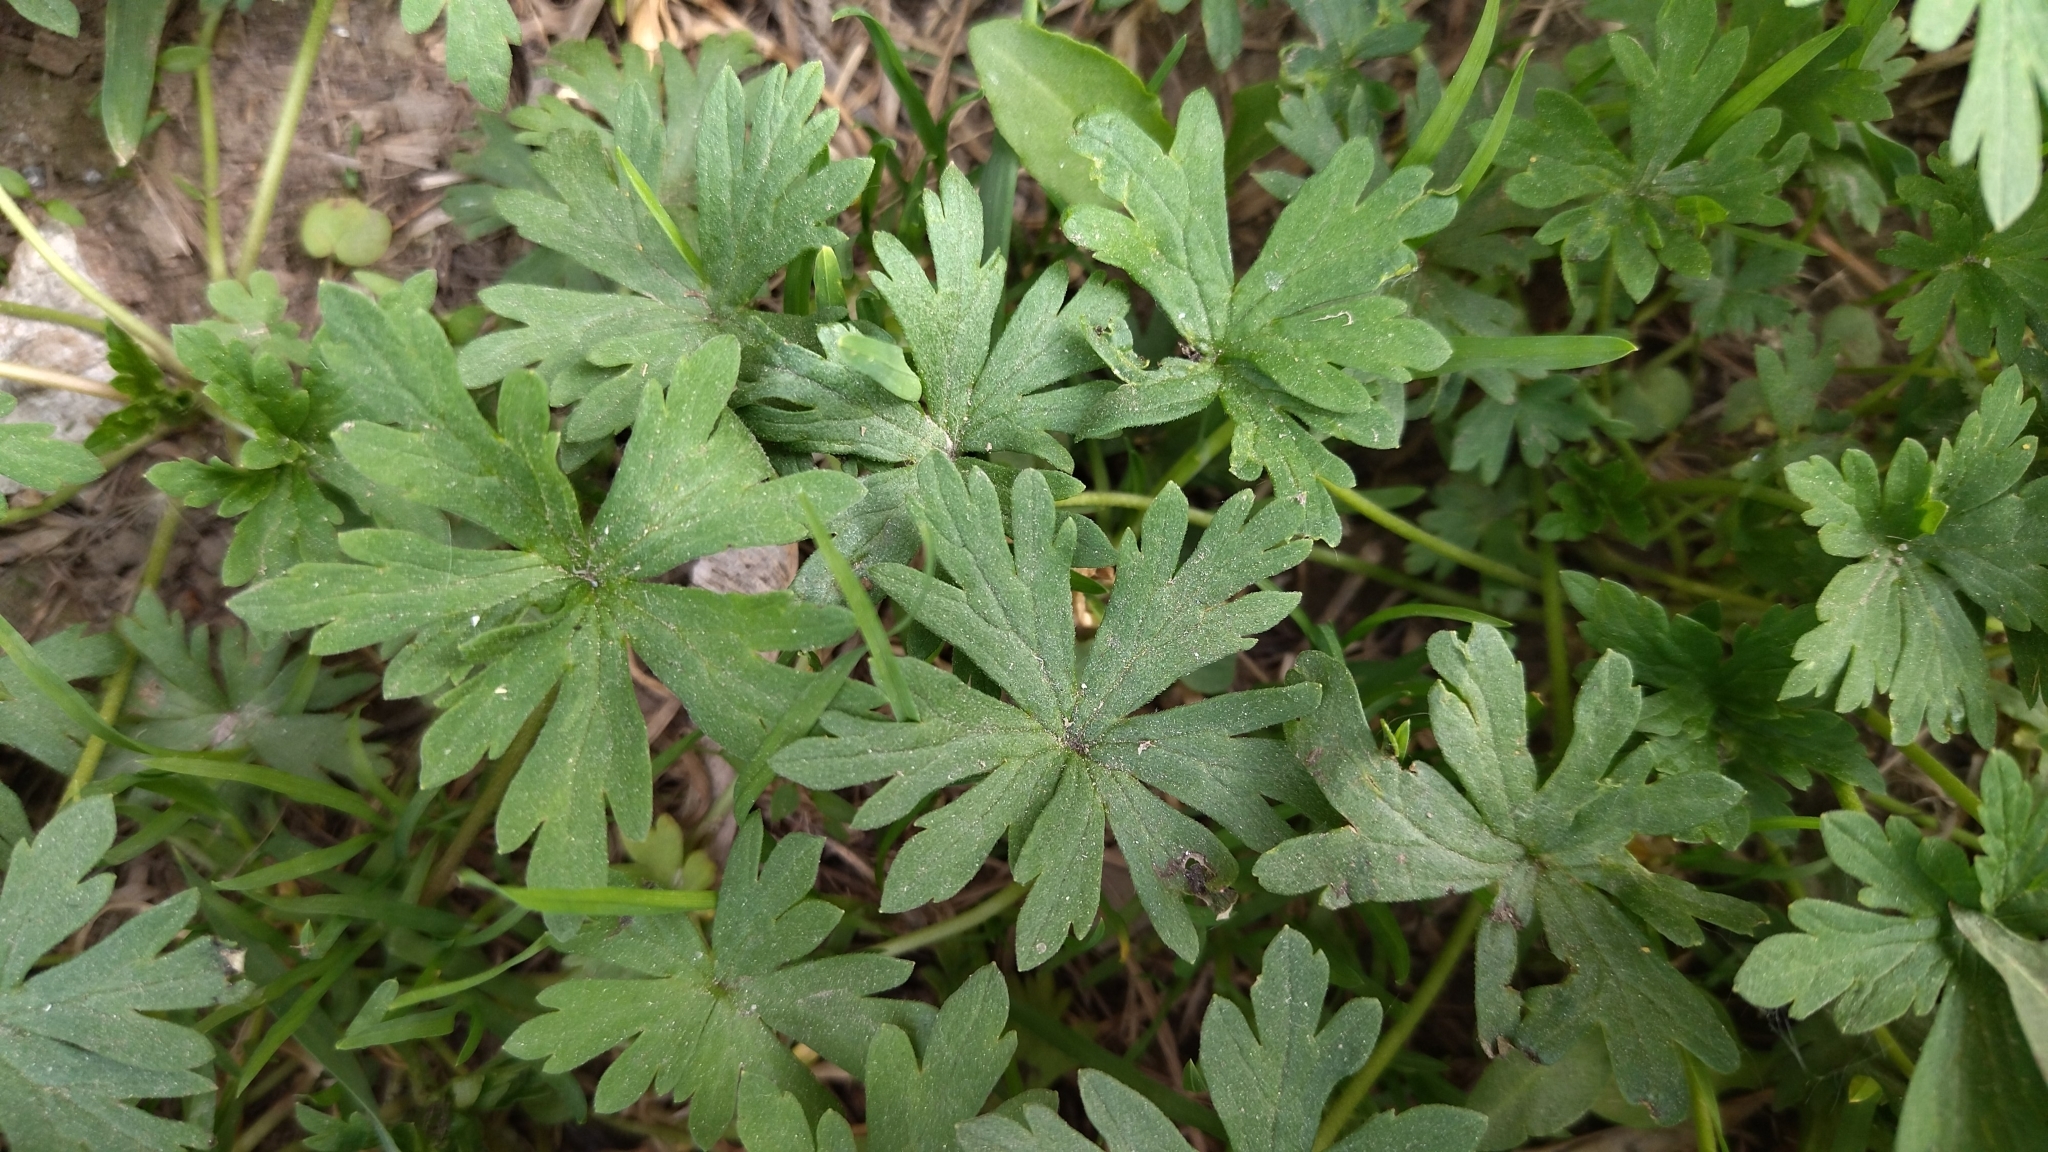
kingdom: Plantae
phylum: Tracheophyta
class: Magnoliopsida
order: Geraniales
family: Geraniaceae
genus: Geranium
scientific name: Geranium sibiricum
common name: Siberian crane's-bill
